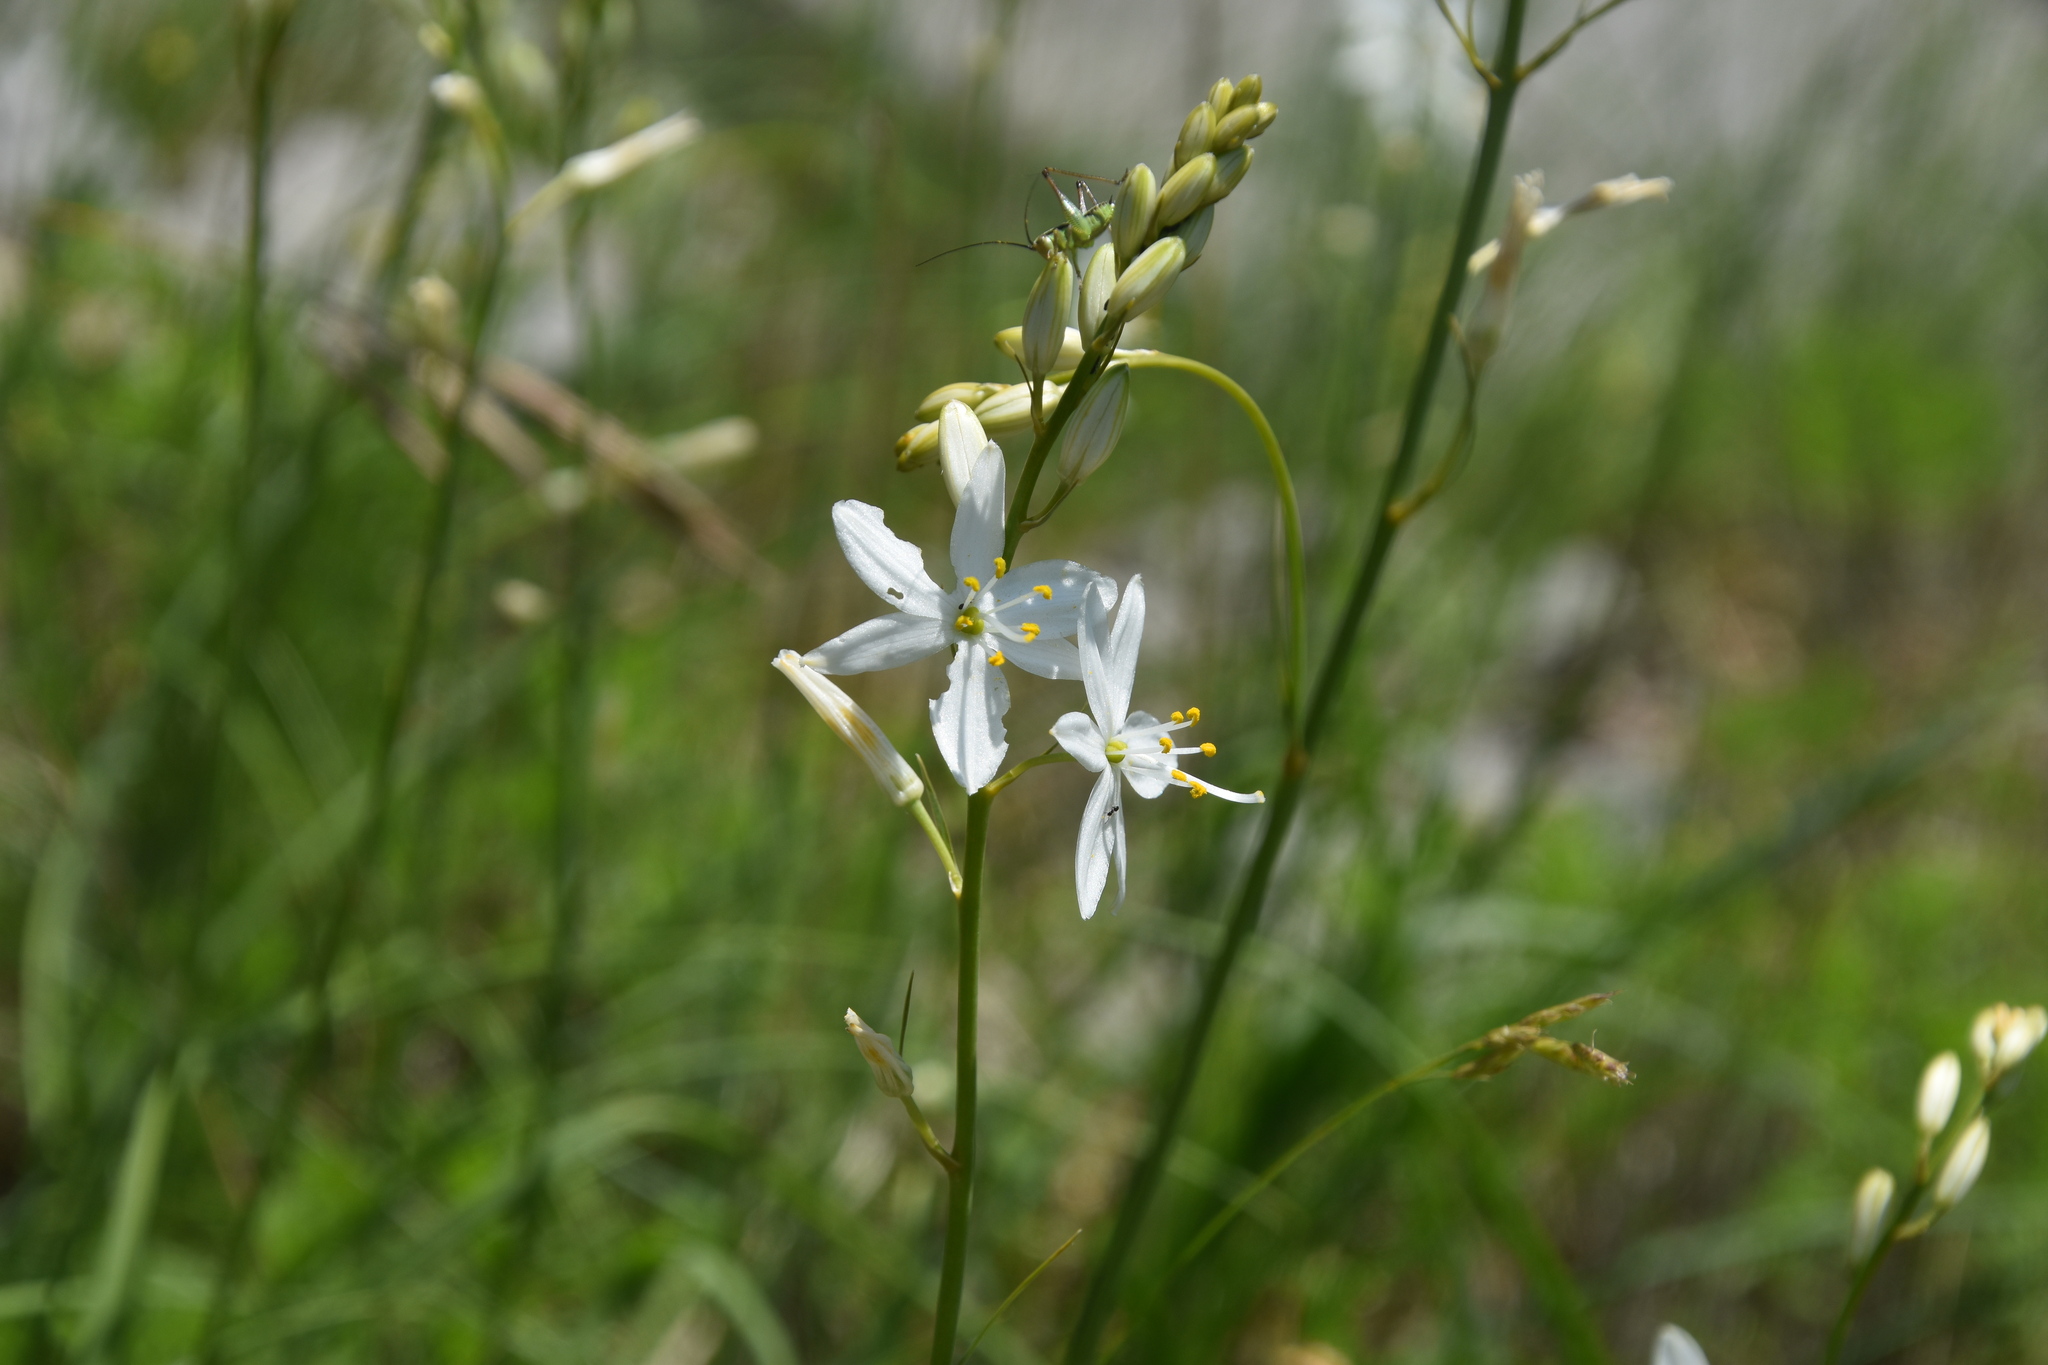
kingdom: Plantae
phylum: Tracheophyta
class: Liliopsida
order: Asparagales
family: Asparagaceae
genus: Anthericum
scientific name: Anthericum liliago
